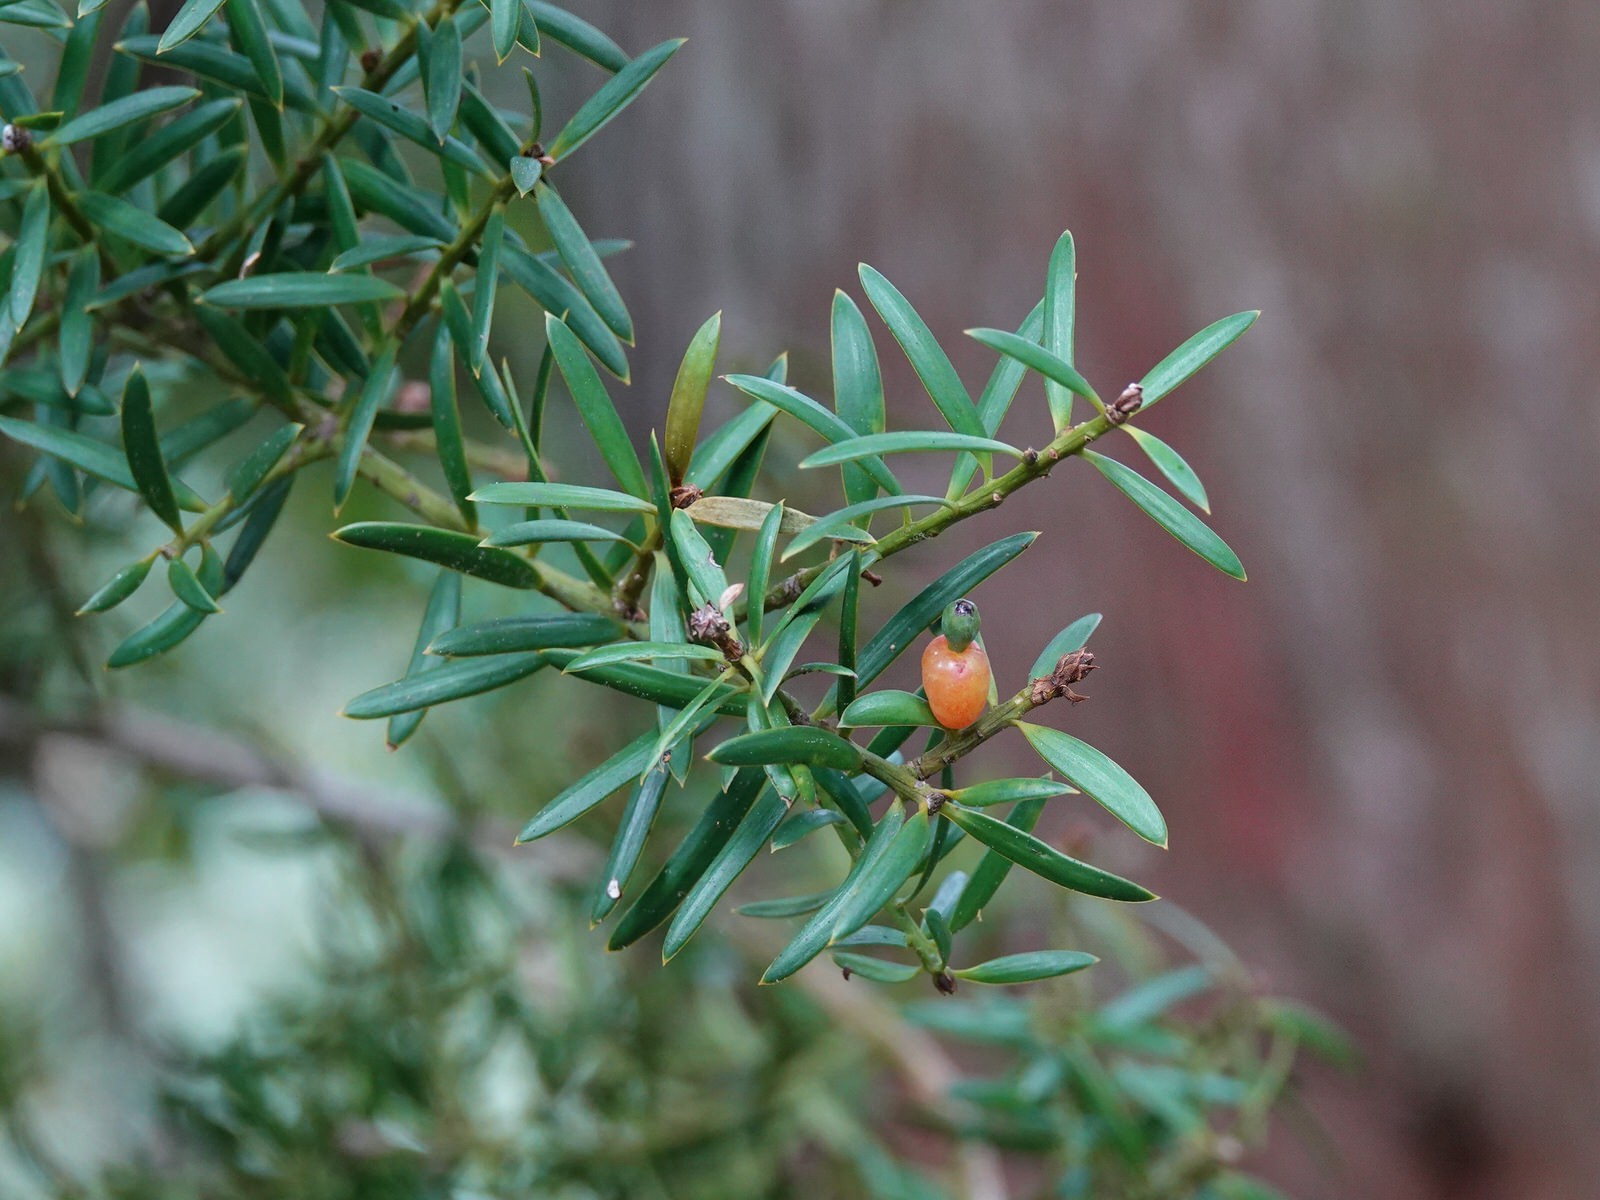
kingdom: Plantae
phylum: Tracheophyta
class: Pinopsida
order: Pinales
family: Podocarpaceae
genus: Podocarpus
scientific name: Podocarpus totara
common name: Totara
